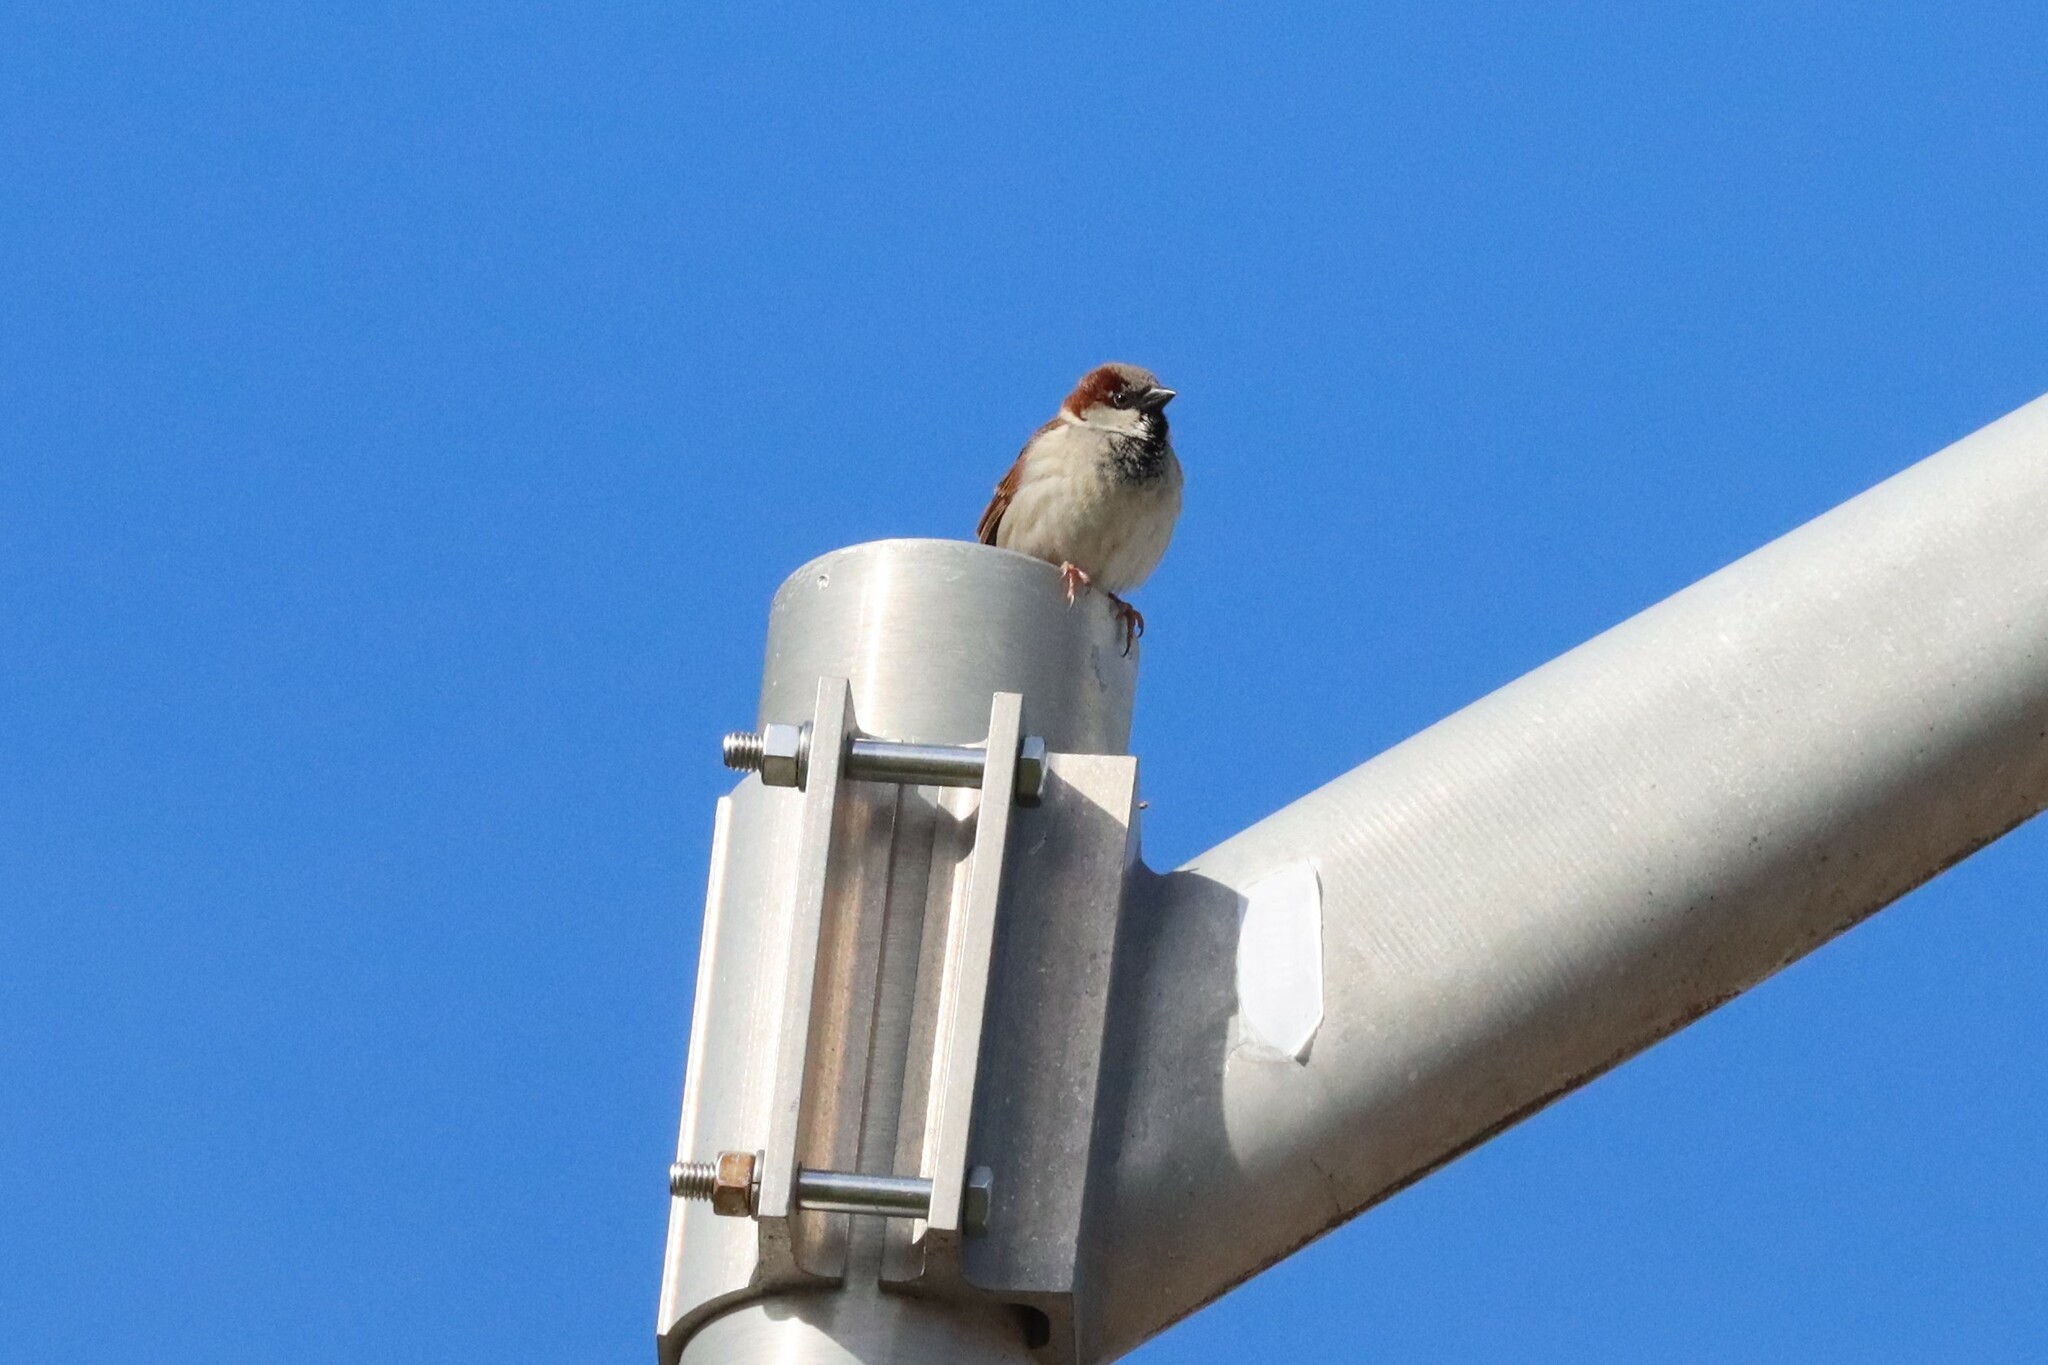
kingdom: Animalia
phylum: Chordata
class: Aves
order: Passeriformes
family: Passeridae
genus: Passer
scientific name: Passer domesticus
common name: House sparrow
